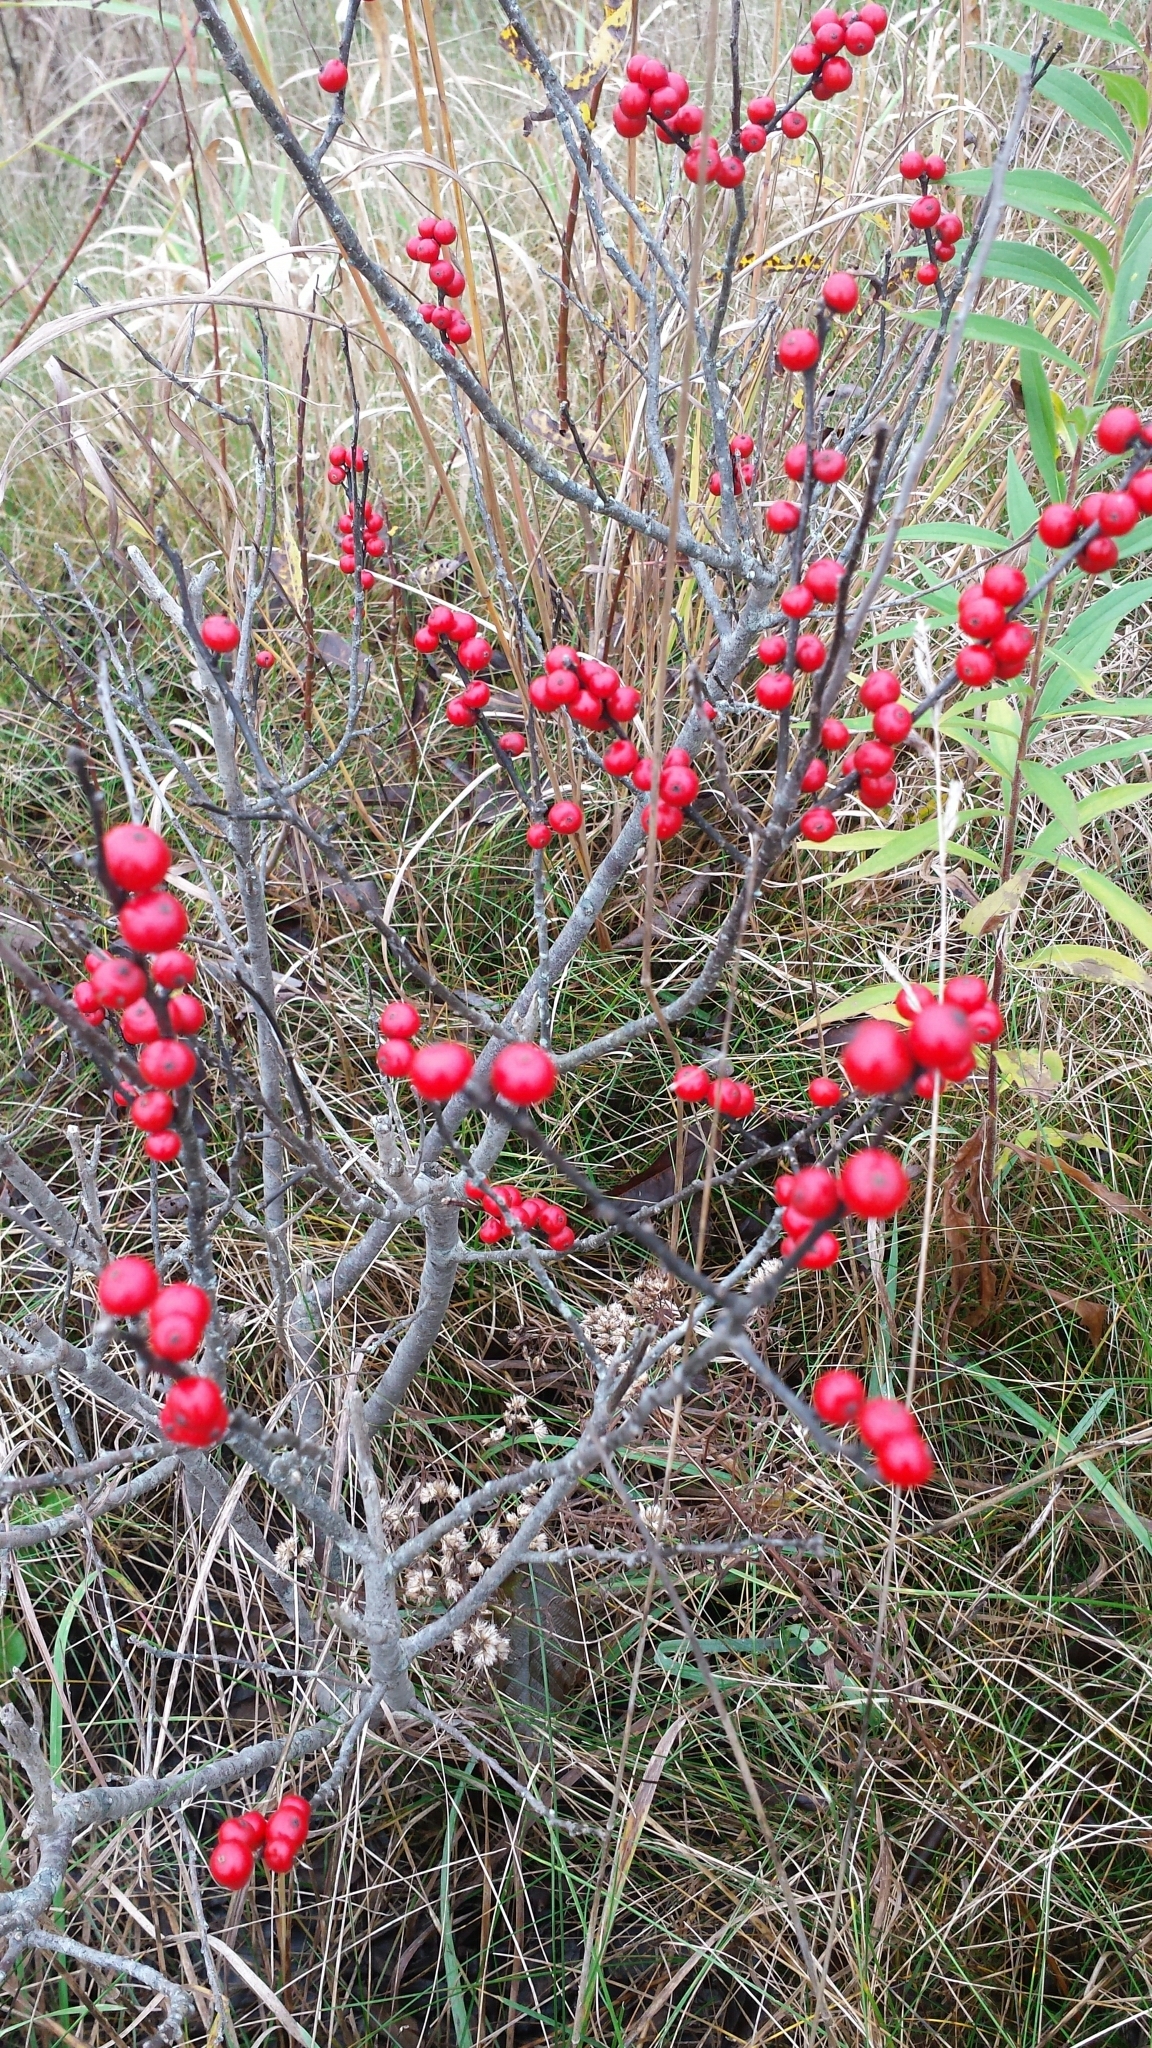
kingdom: Plantae
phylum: Tracheophyta
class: Magnoliopsida
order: Aquifoliales
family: Aquifoliaceae
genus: Ilex
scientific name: Ilex verticillata
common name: Virginia winterberry
